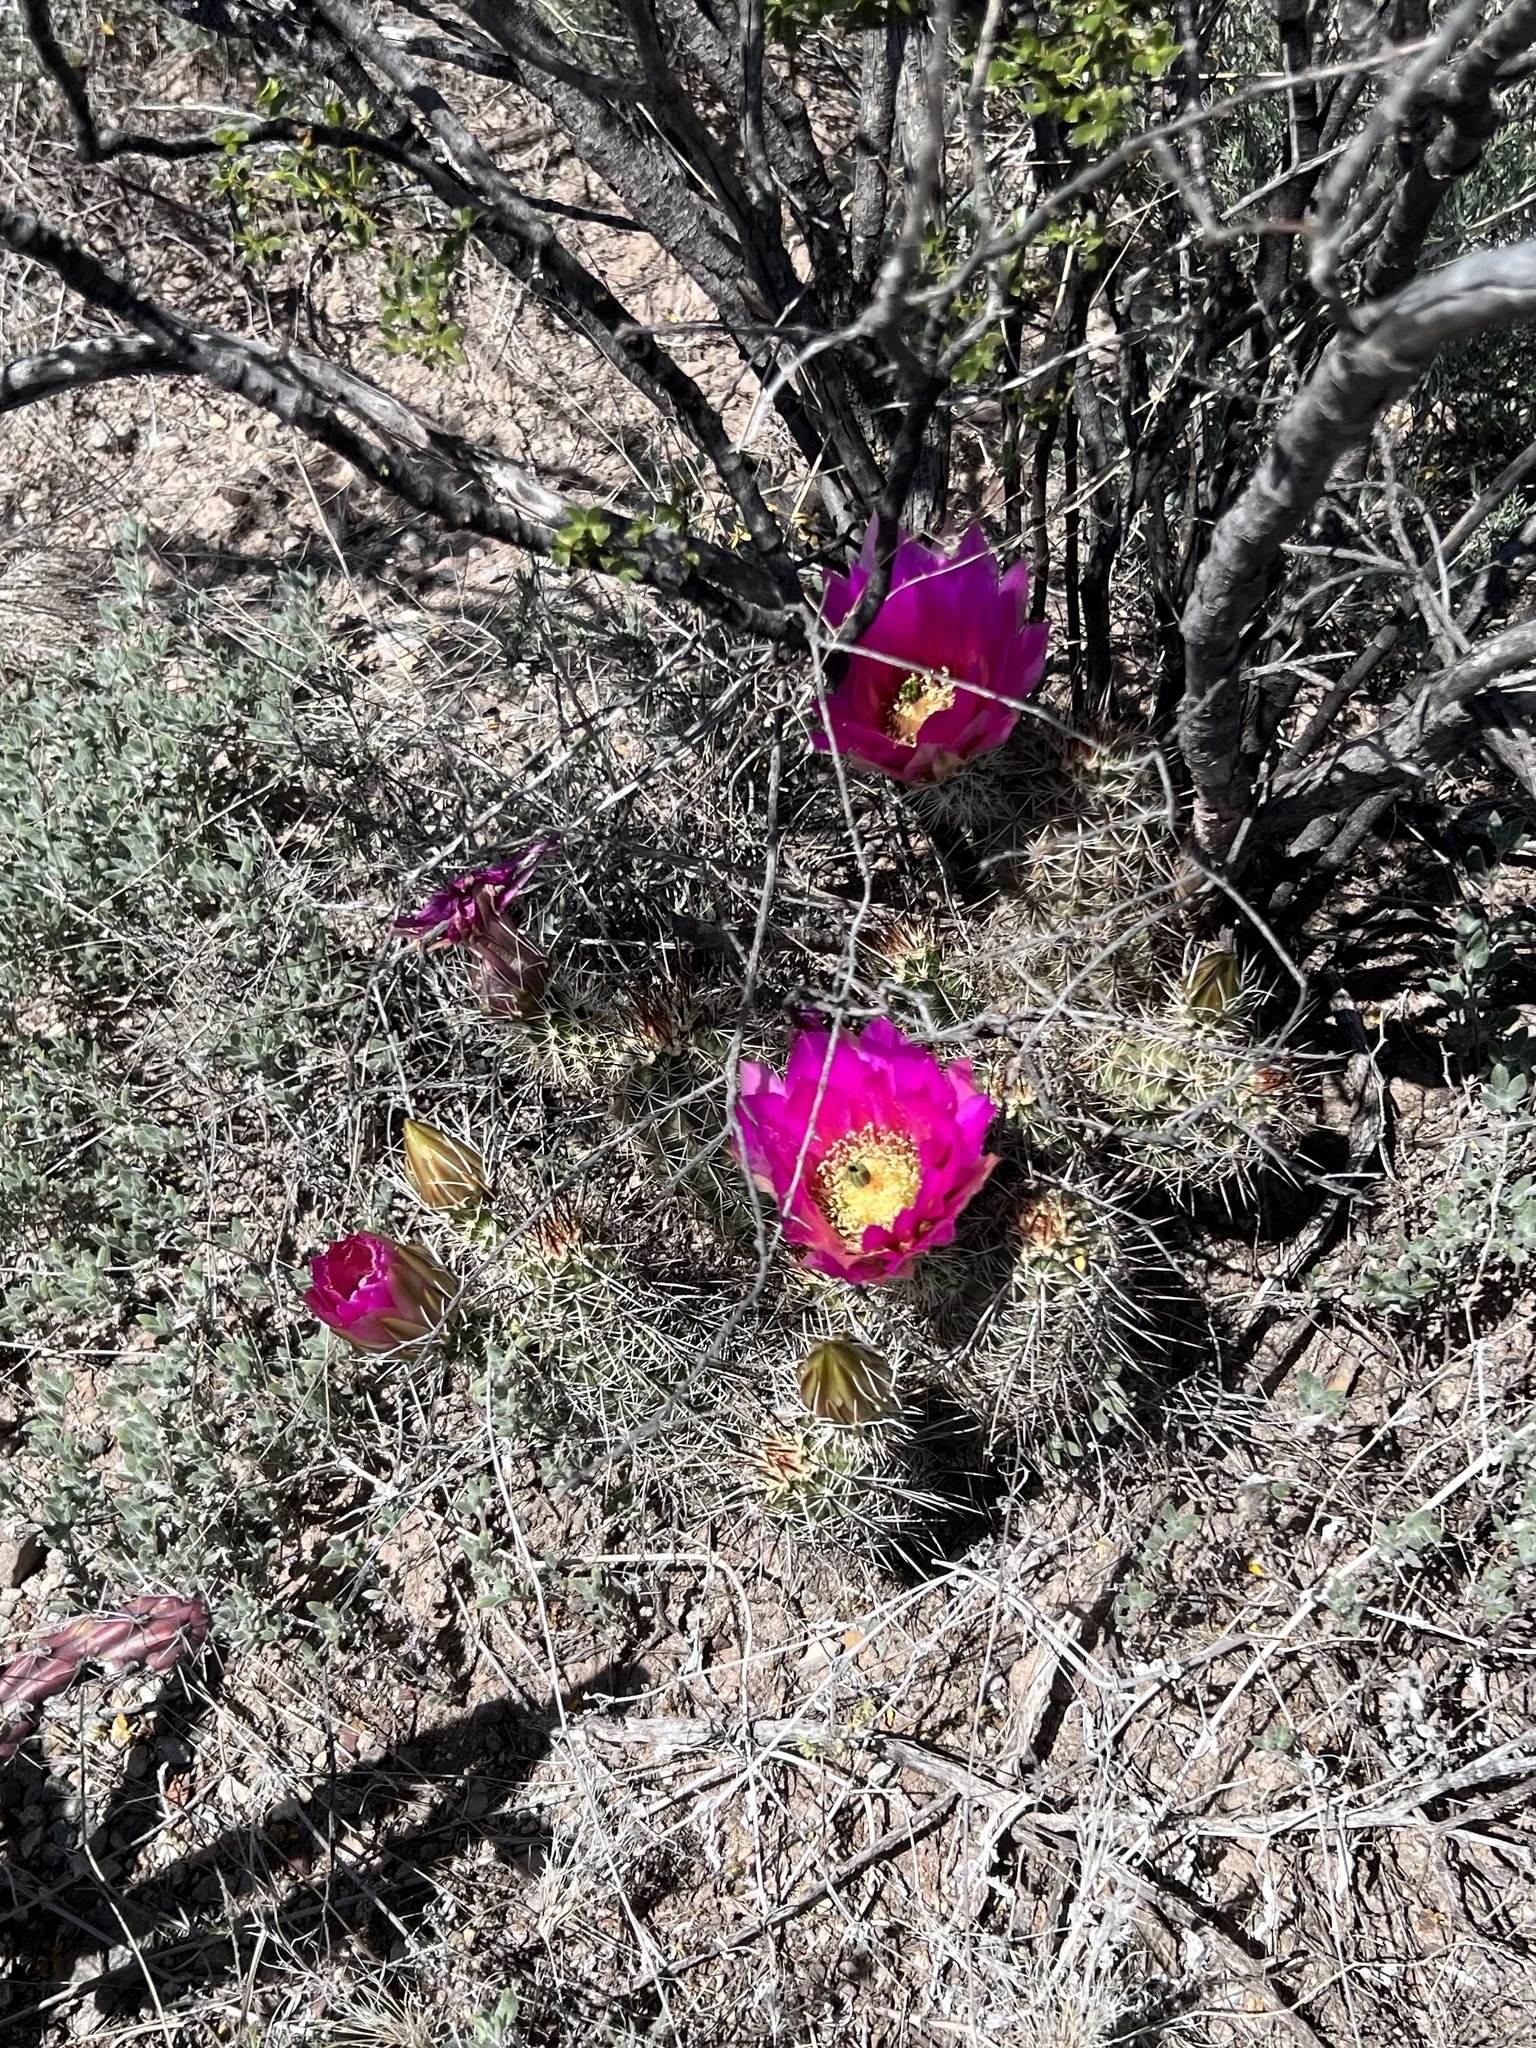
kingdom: Plantae
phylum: Tracheophyta
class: Magnoliopsida
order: Caryophyllales
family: Cactaceae
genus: Echinocereus
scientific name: Echinocereus fasciculatus
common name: Bundle hedgehog
